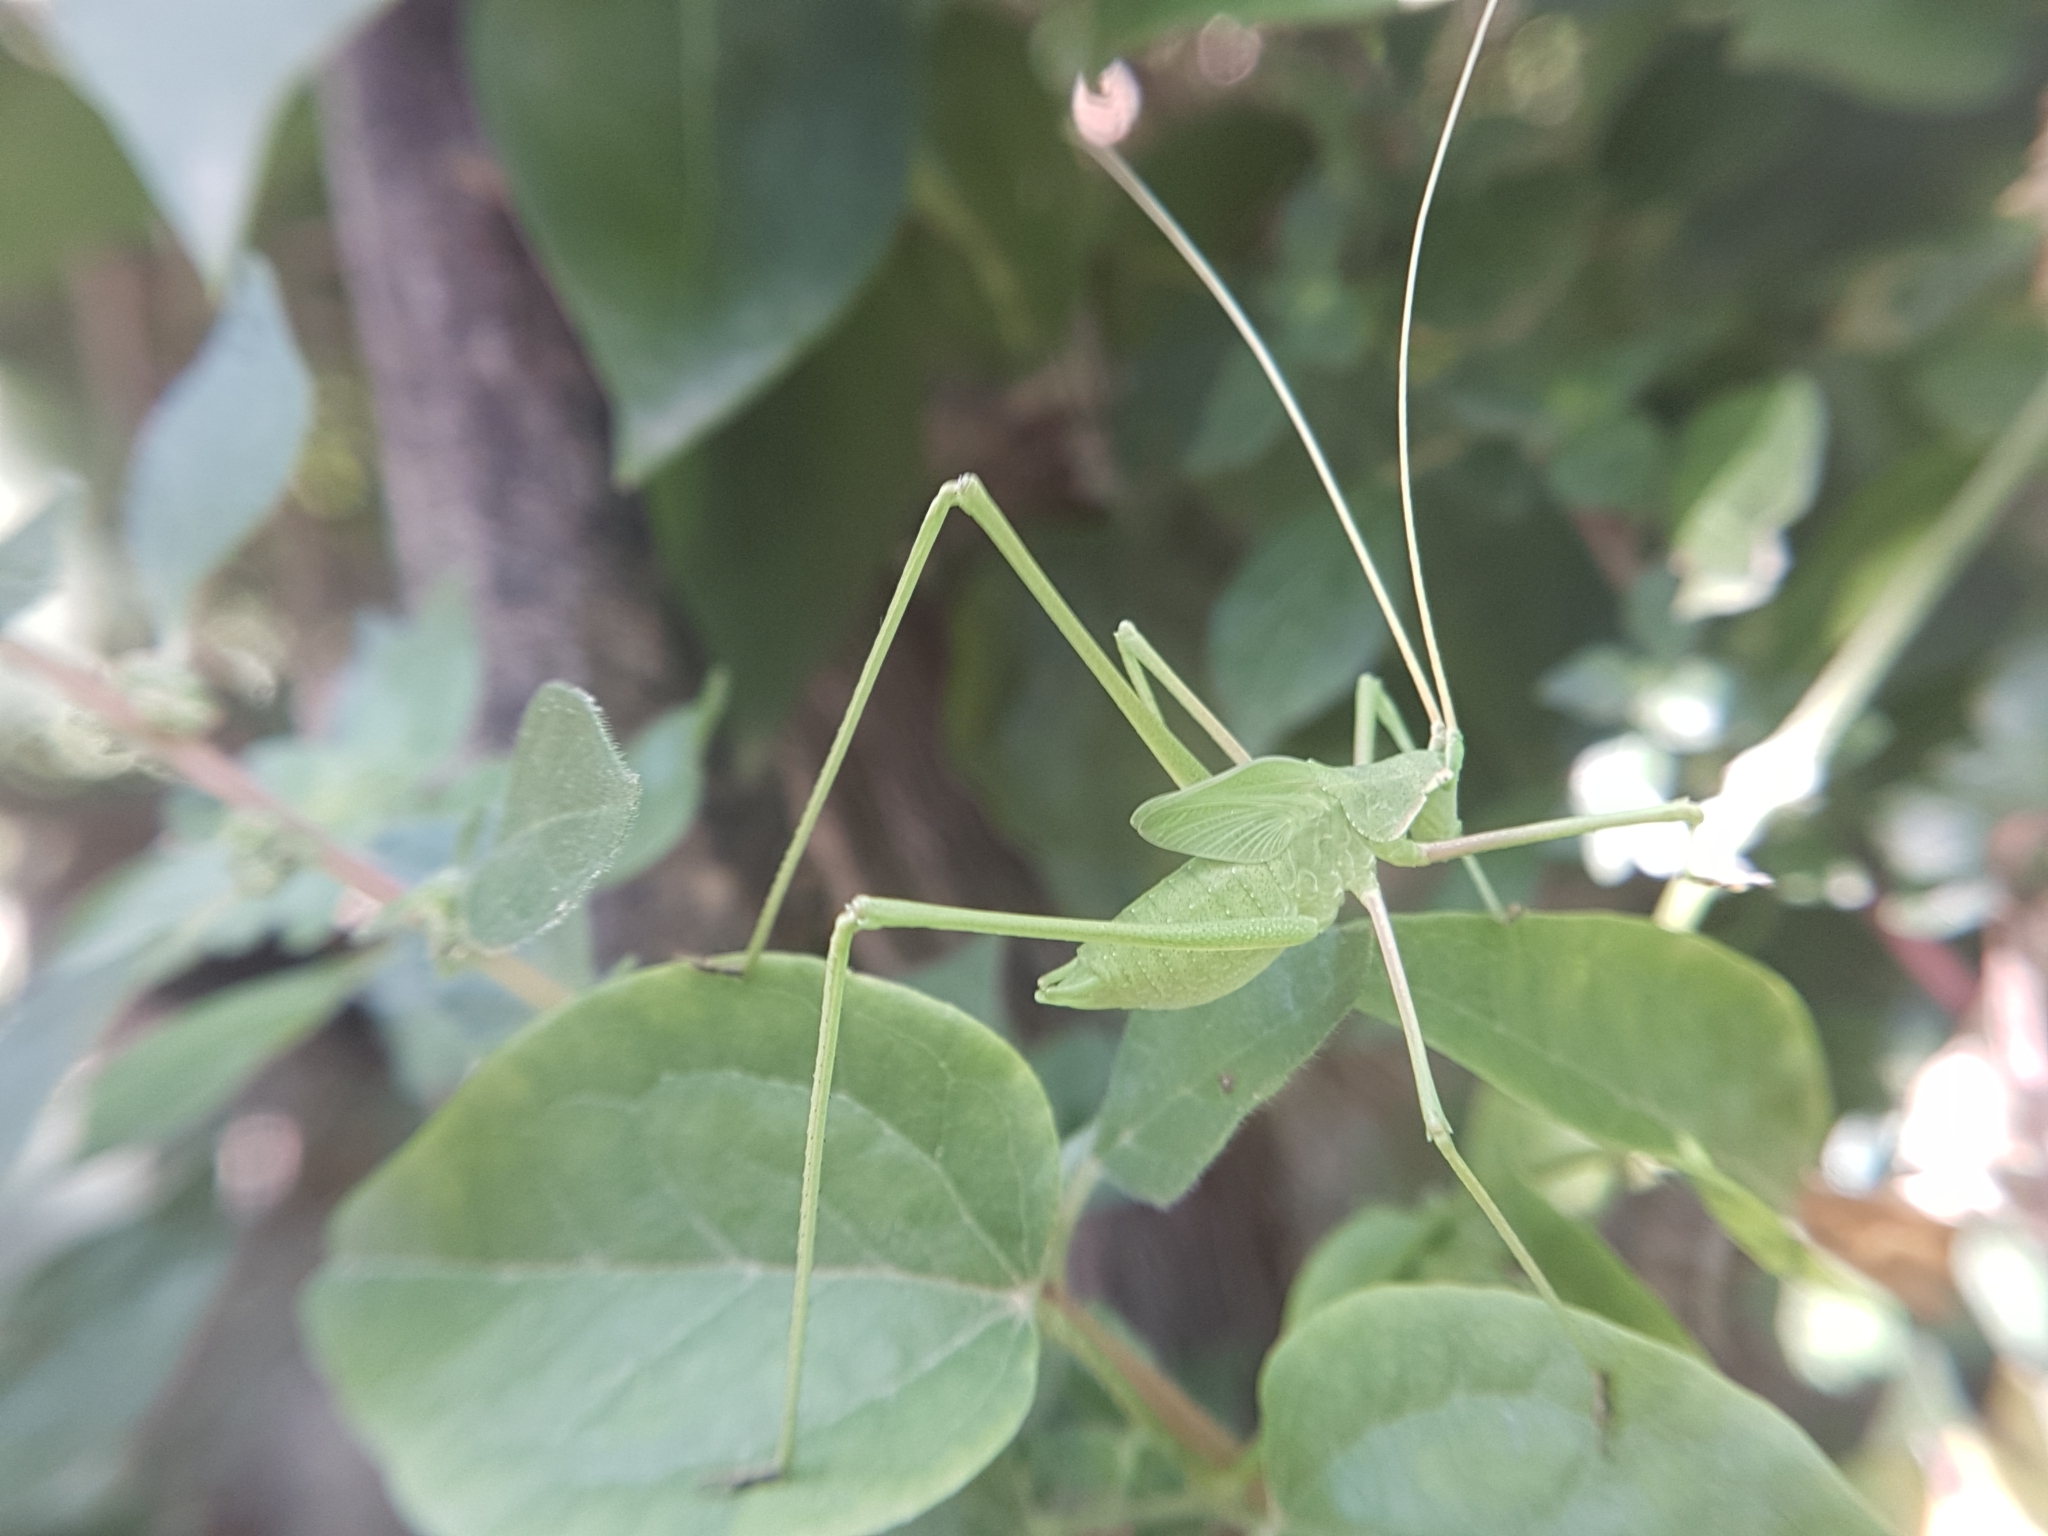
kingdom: Animalia
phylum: Arthropoda
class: Insecta
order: Orthoptera
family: Tettigoniidae
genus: Acrometopa
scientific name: Acrometopa macropoda
